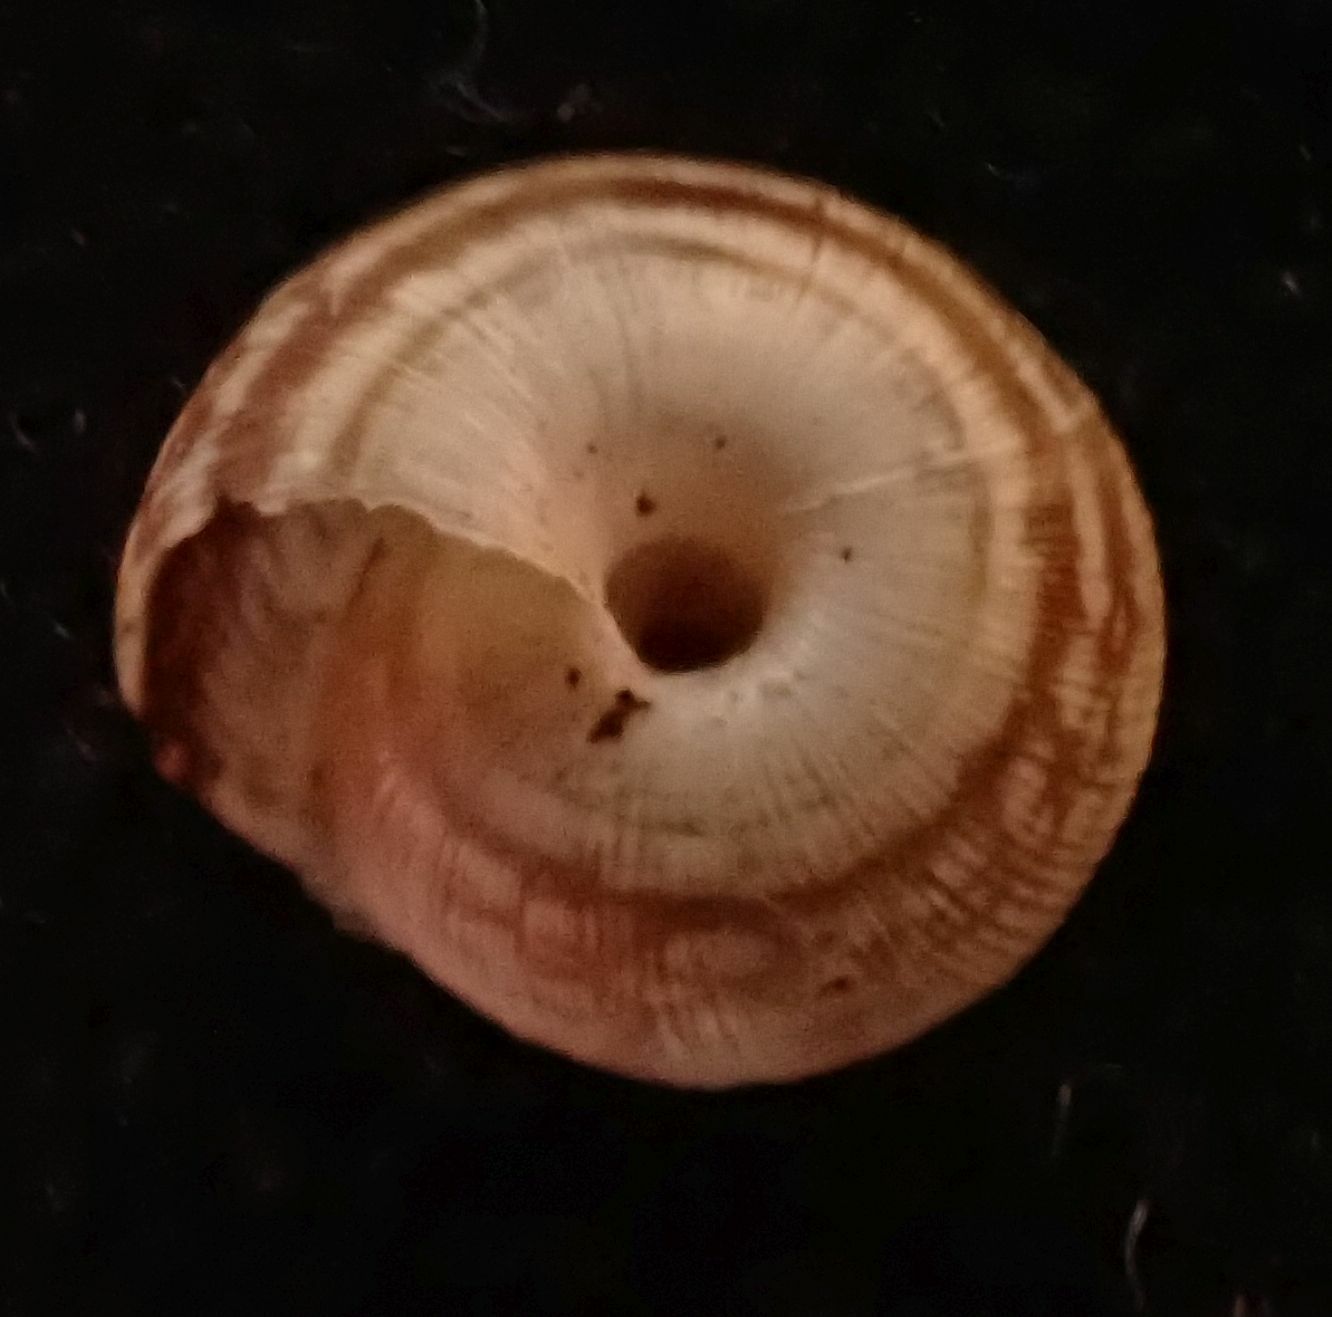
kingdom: Animalia
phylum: Mollusca
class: Gastropoda
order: Stylommatophora
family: Geomitridae
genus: Xeroplexa
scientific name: Xeroplexa intersecta
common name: Wrinkled snail
